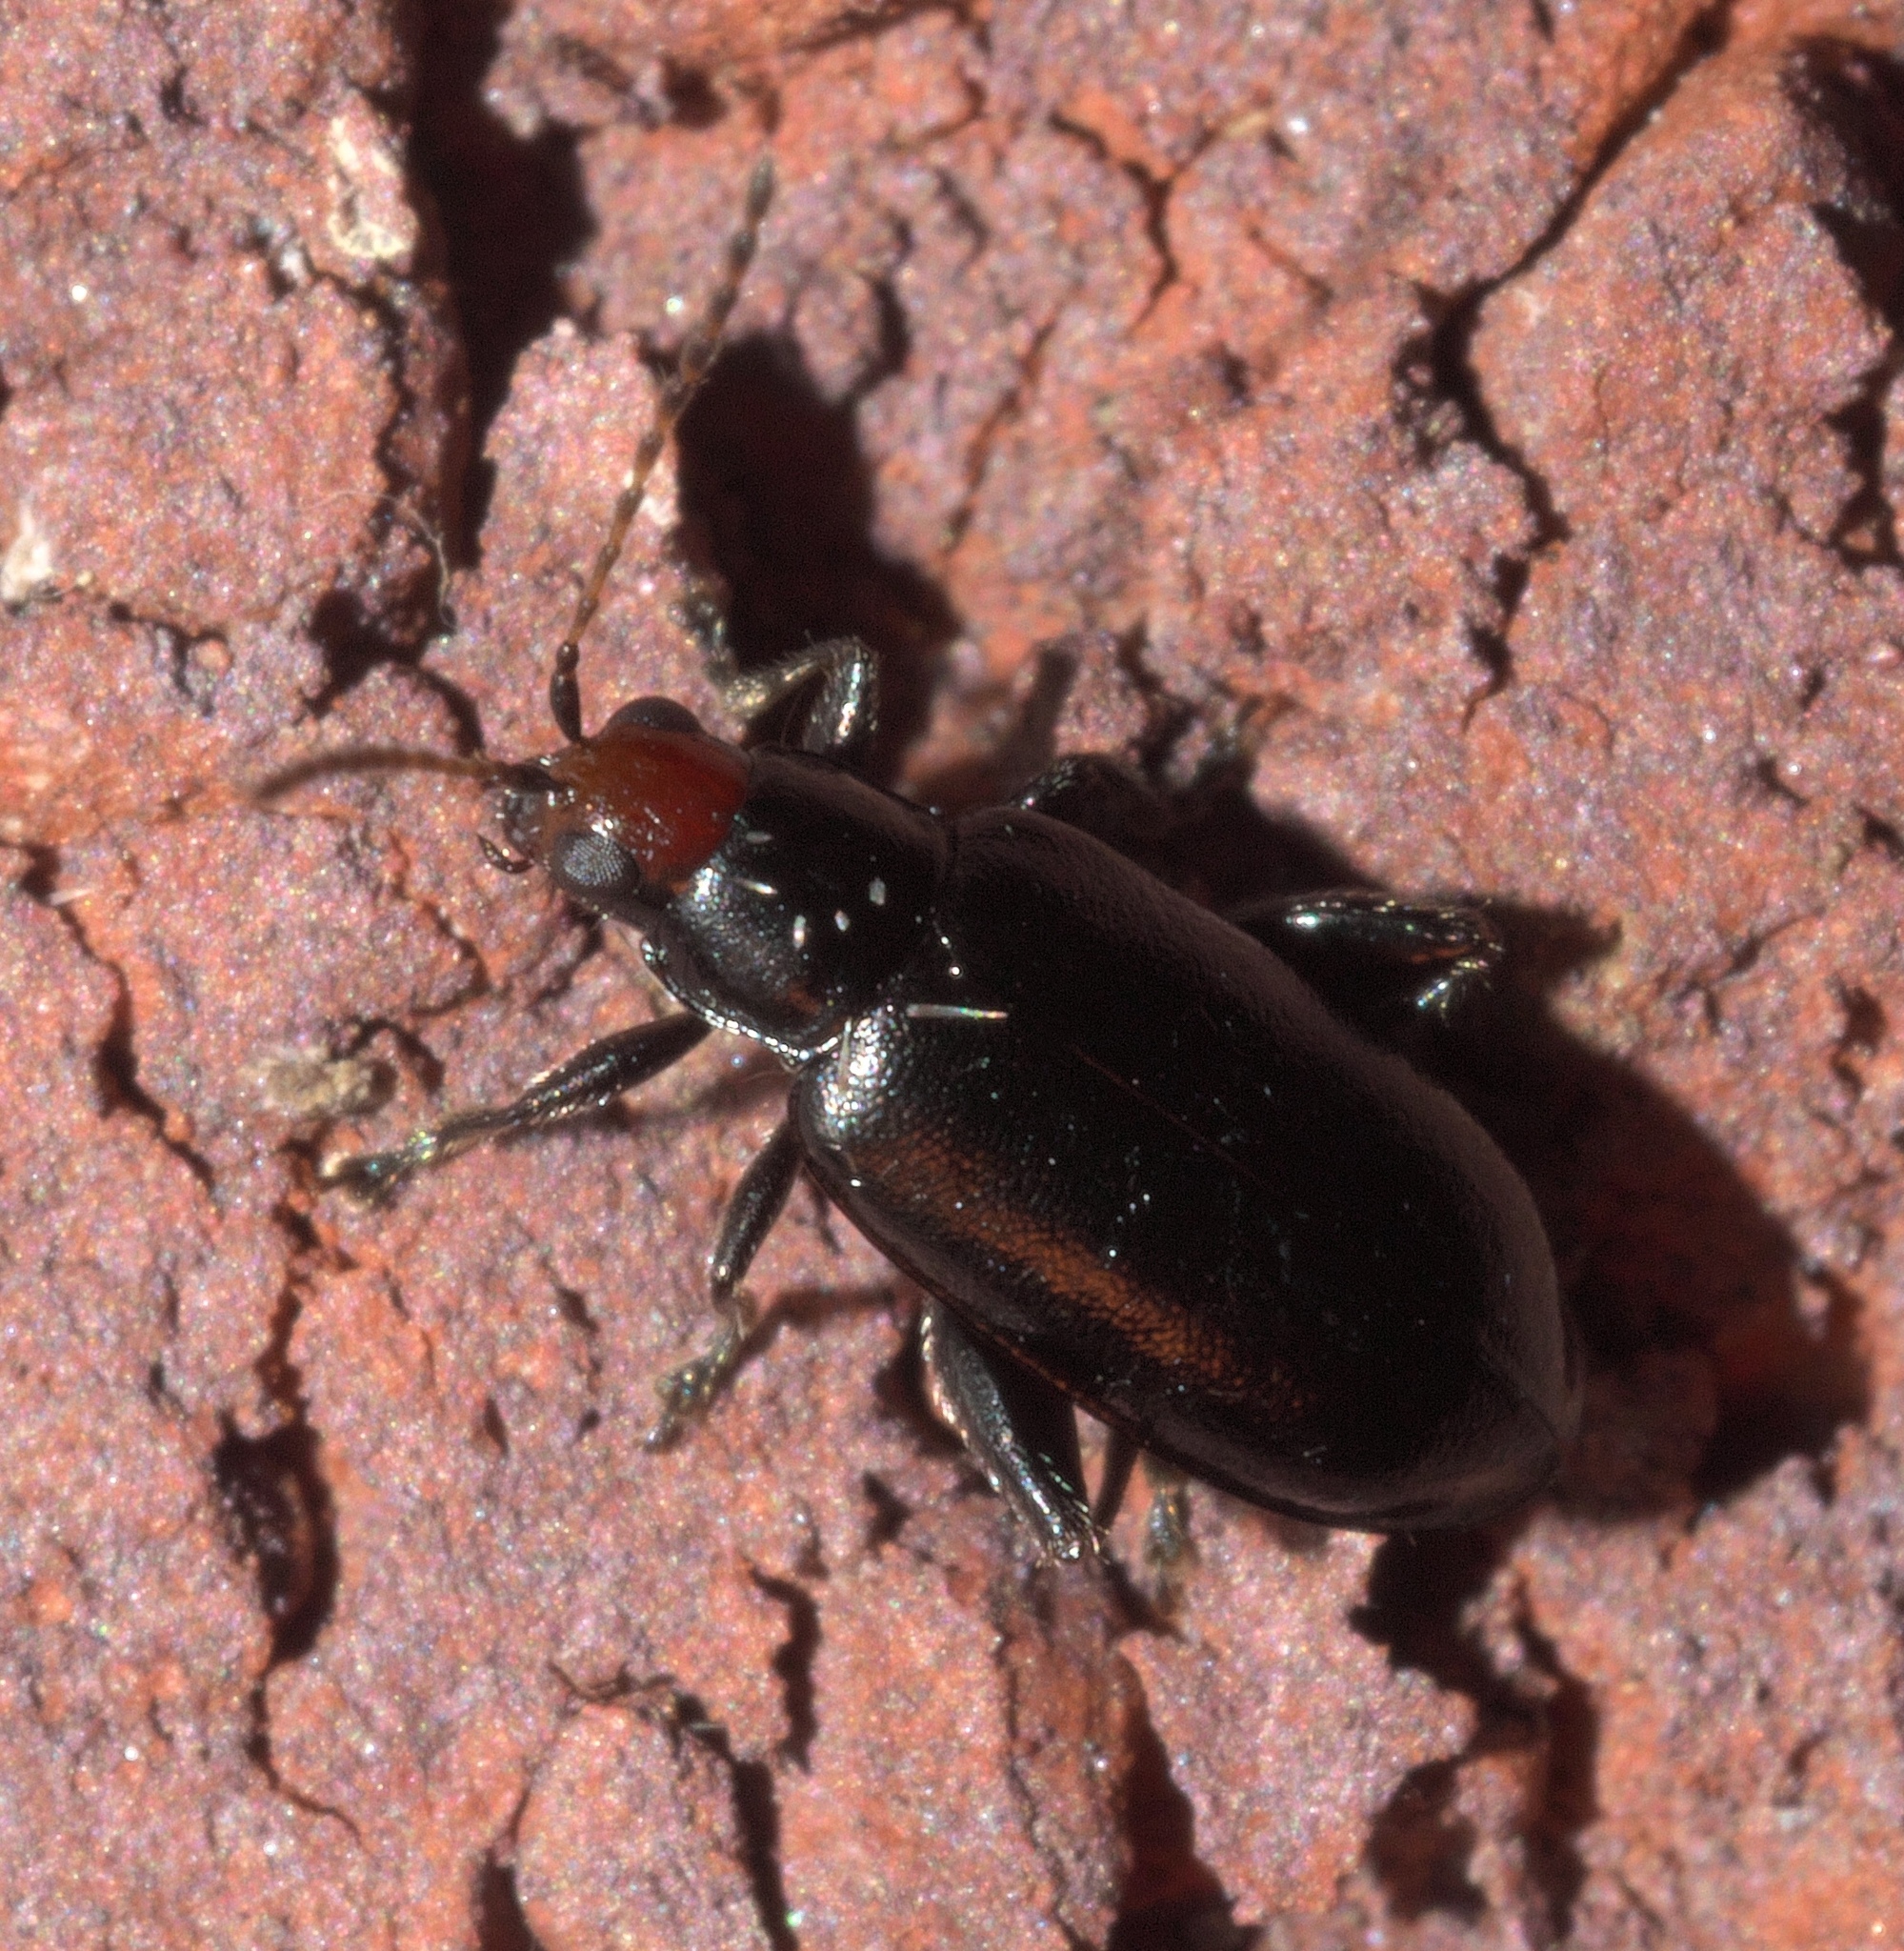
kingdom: Animalia
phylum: Arthropoda
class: Insecta
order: Coleoptera
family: Chrysomelidae
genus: Systena
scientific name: Systena frontalis
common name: Red-headed flea beetle
